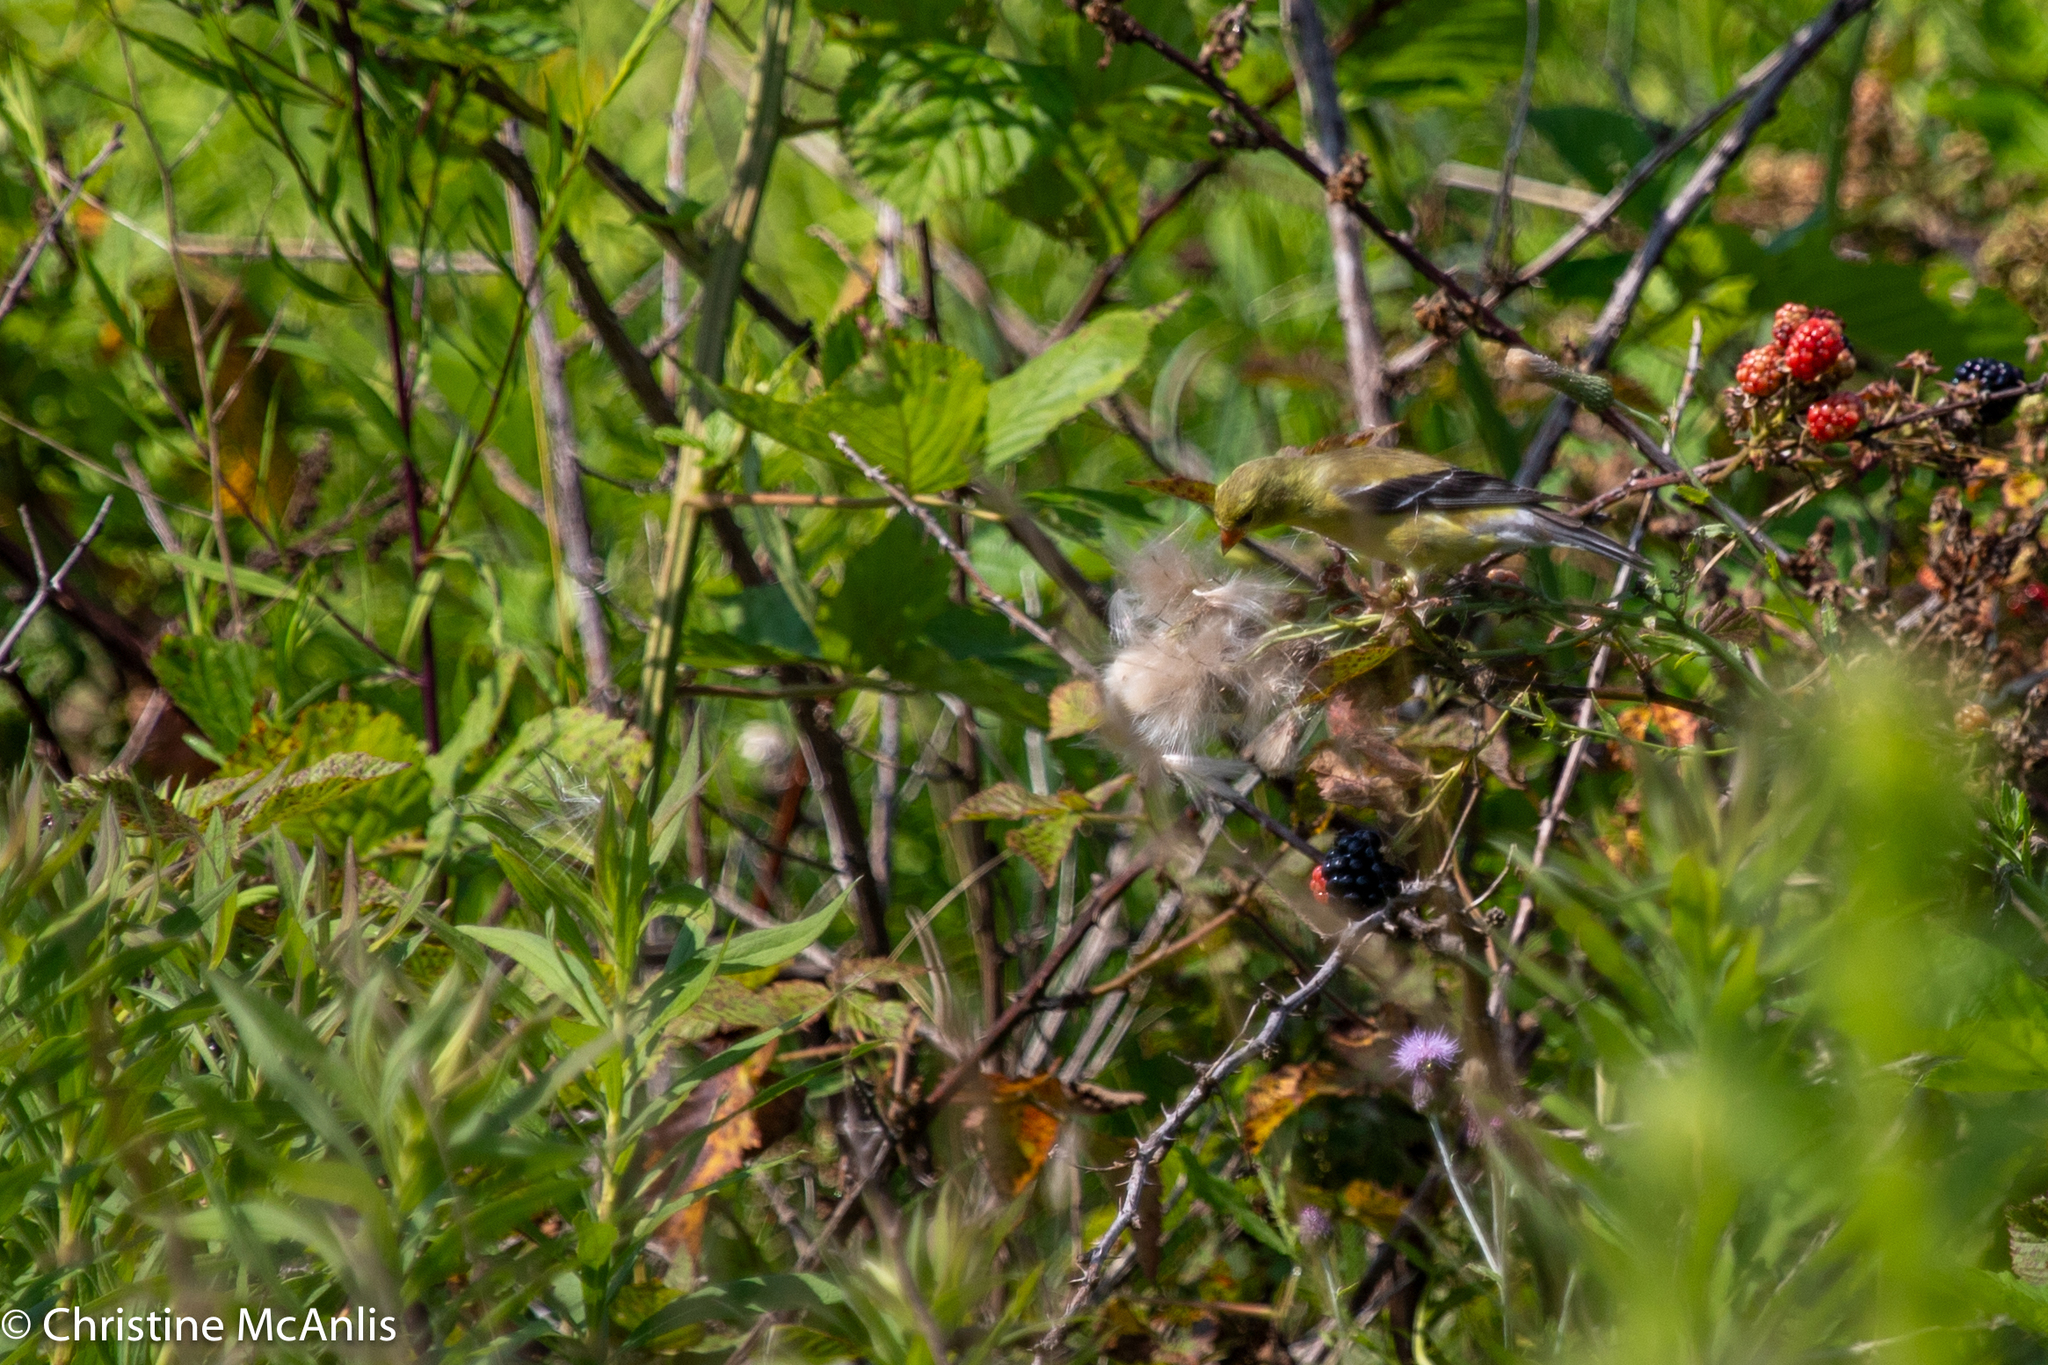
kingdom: Animalia
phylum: Chordata
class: Aves
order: Passeriformes
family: Fringillidae
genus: Spinus
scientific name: Spinus tristis
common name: American goldfinch
